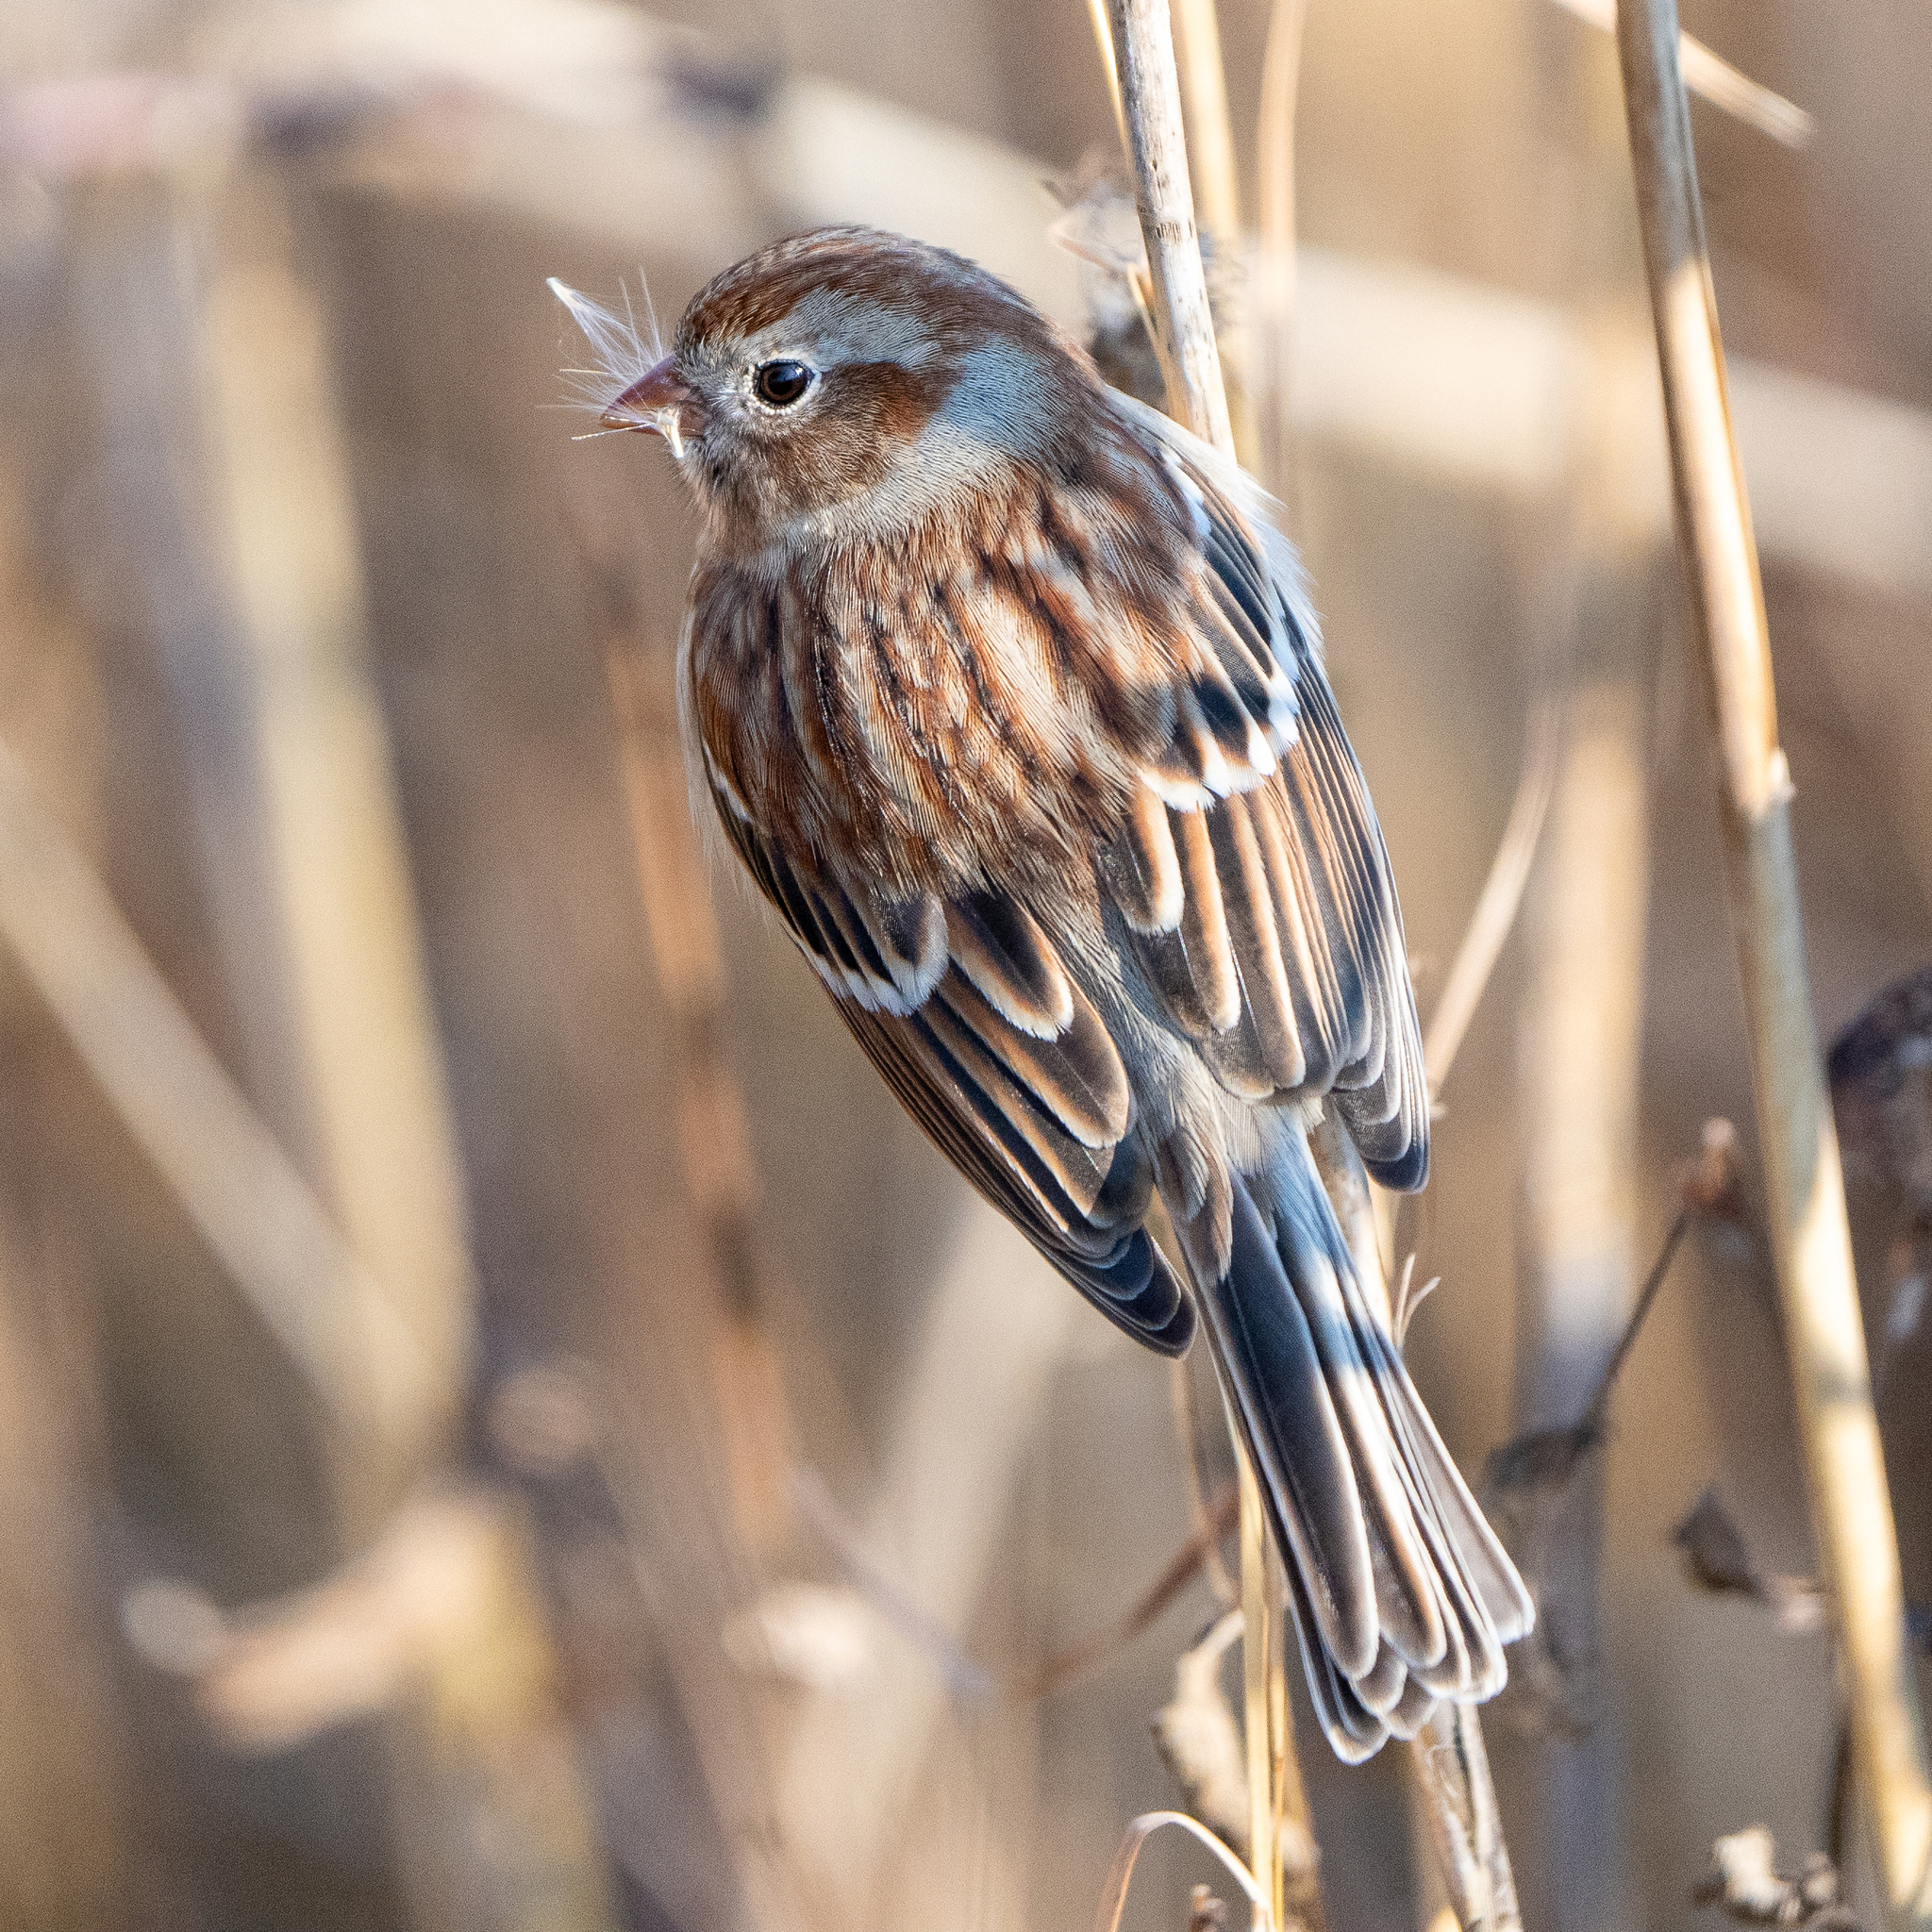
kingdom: Animalia
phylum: Chordata
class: Aves
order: Passeriformes
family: Passerellidae
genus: Spizella
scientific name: Spizella pusilla
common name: Field sparrow
